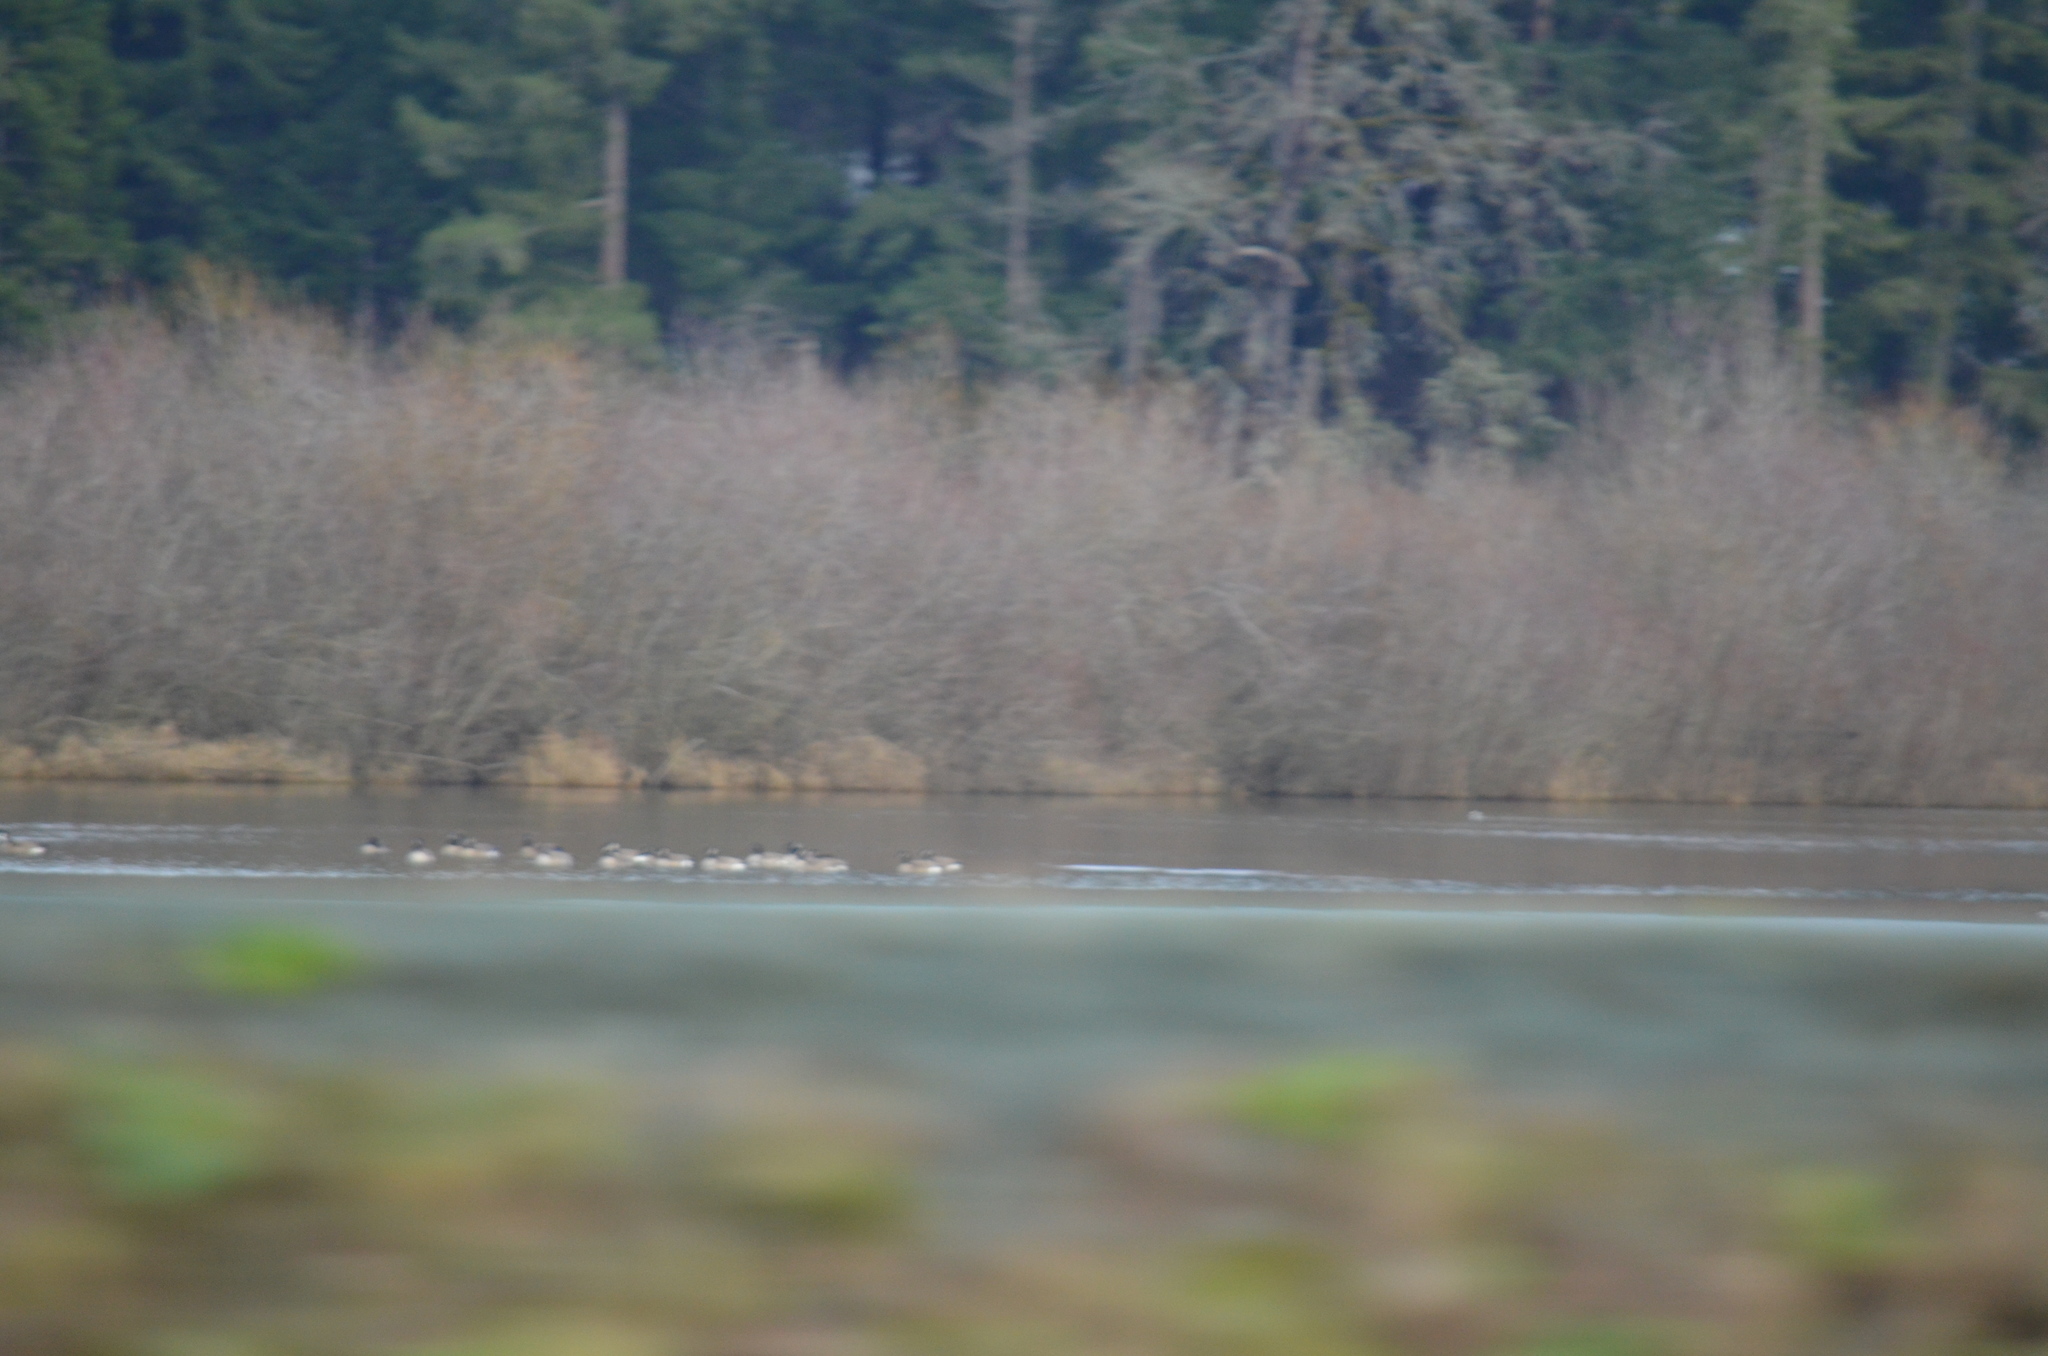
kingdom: Animalia
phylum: Chordata
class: Aves
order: Anseriformes
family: Anatidae
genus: Branta
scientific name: Branta canadensis
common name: Canada goose
